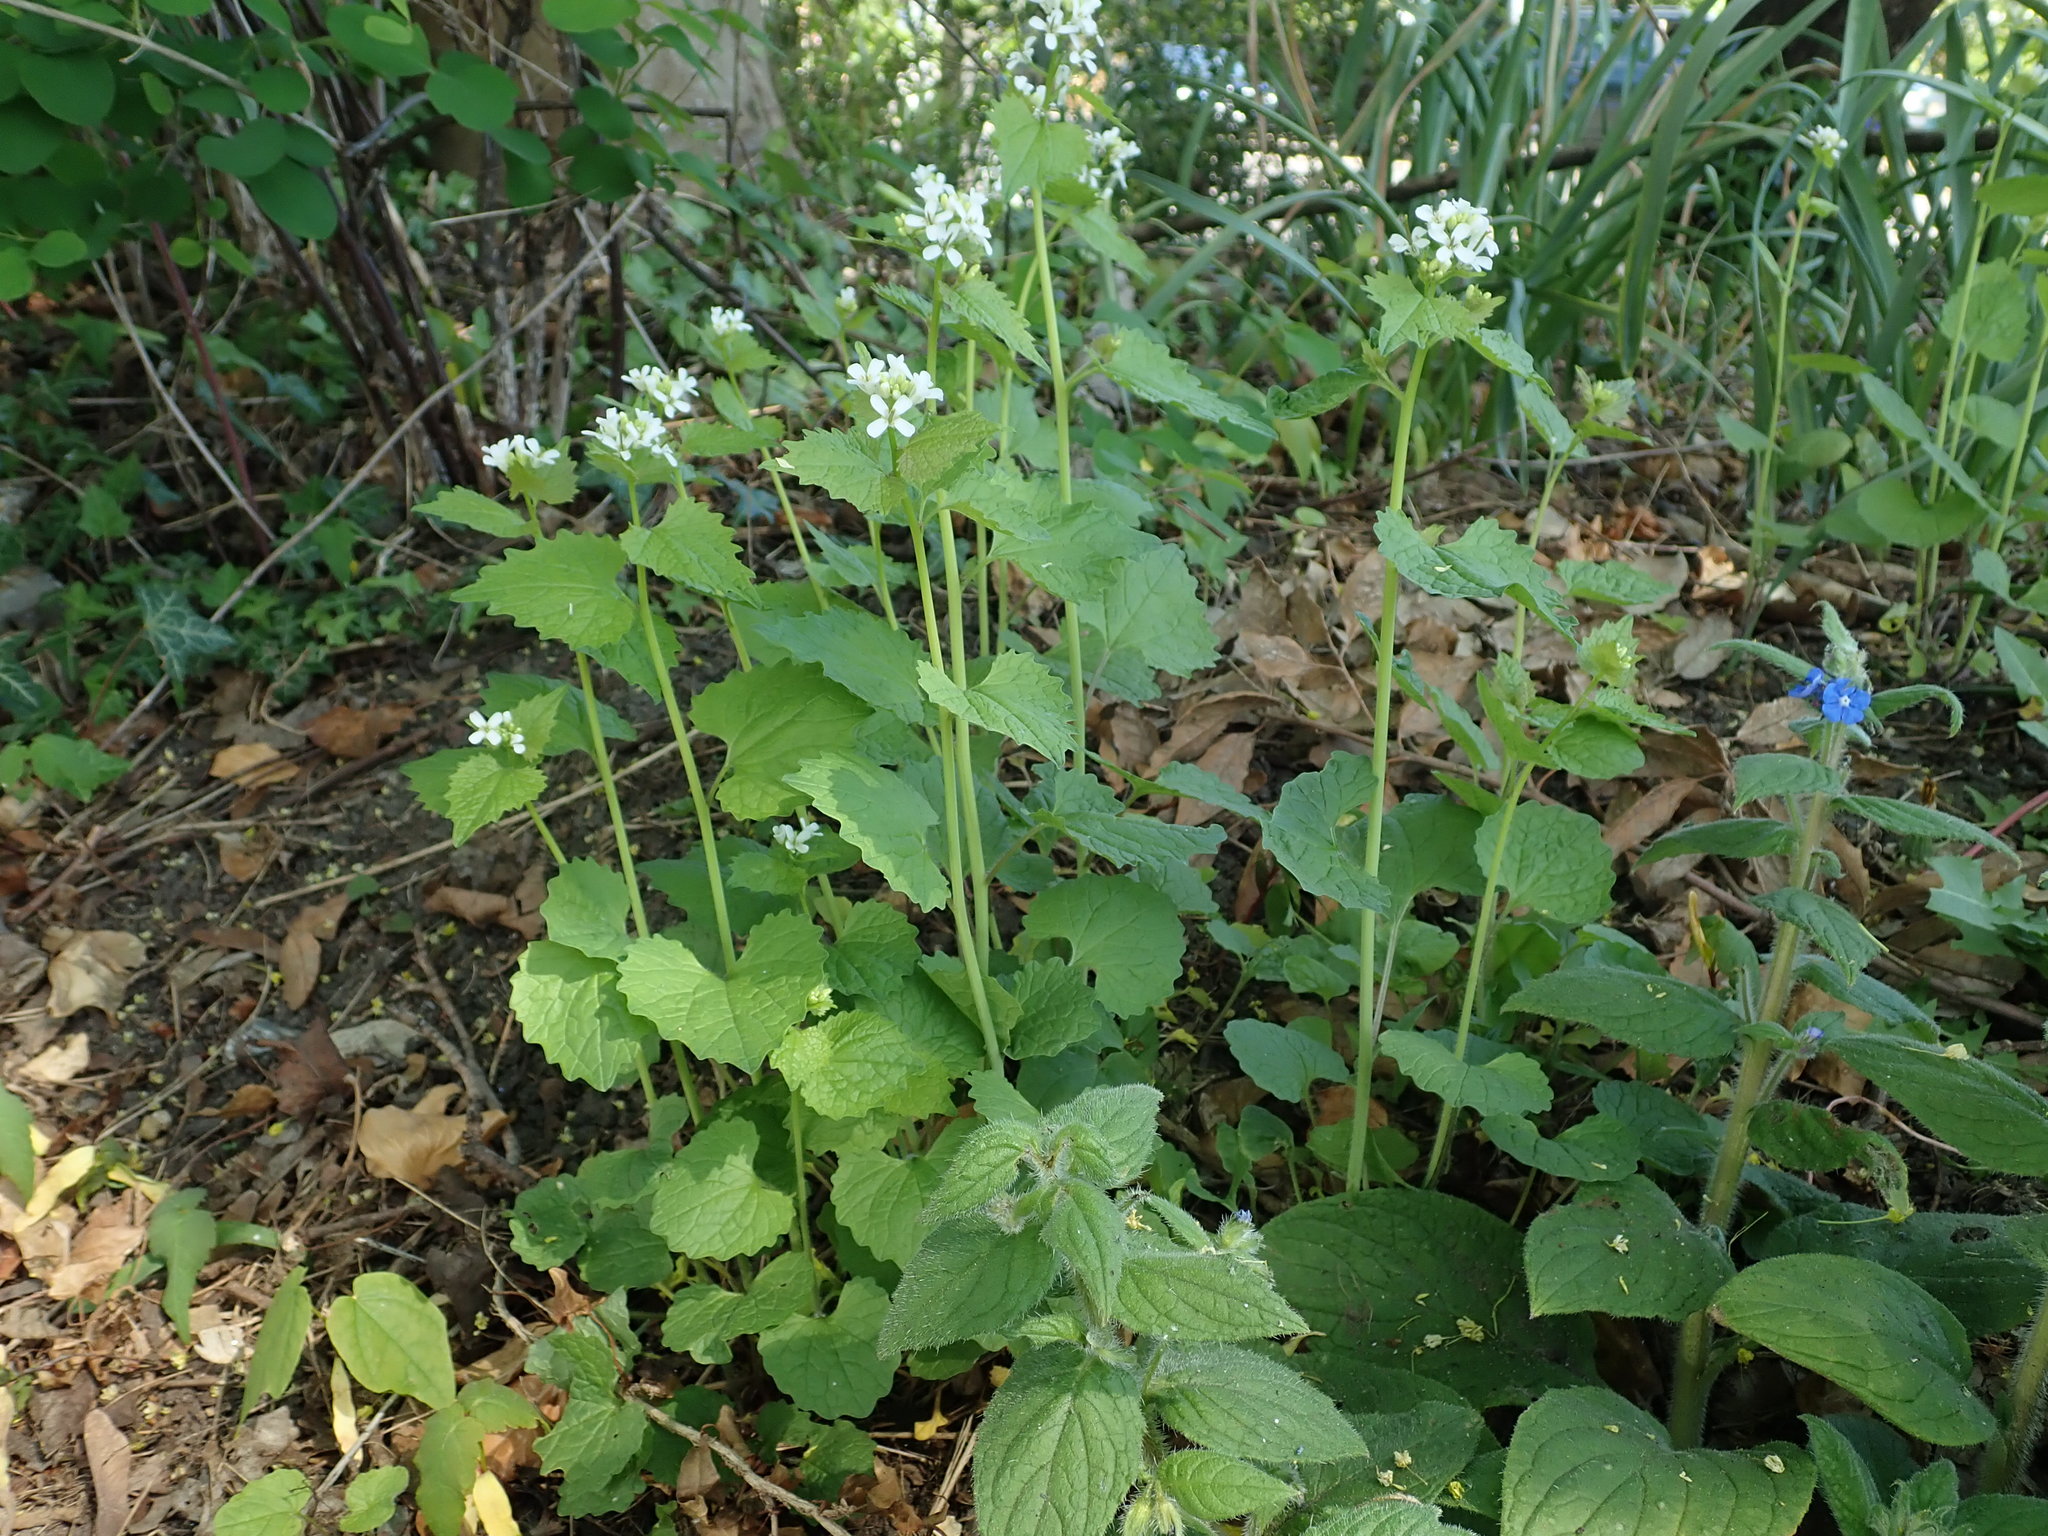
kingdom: Plantae
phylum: Tracheophyta
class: Magnoliopsida
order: Brassicales
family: Brassicaceae
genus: Alliaria
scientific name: Alliaria petiolata
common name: Garlic mustard
